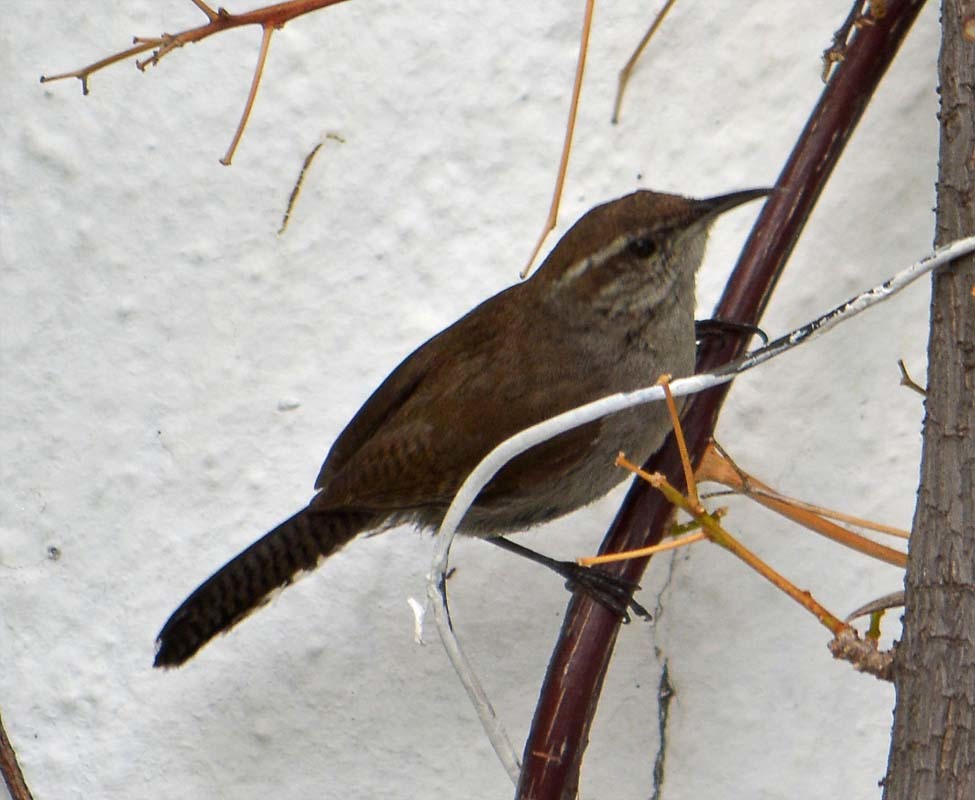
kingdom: Animalia
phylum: Chordata
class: Aves
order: Passeriformes
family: Troglodytidae
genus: Thryomanes
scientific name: Thryomanes bewickii
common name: Bewick's wren
